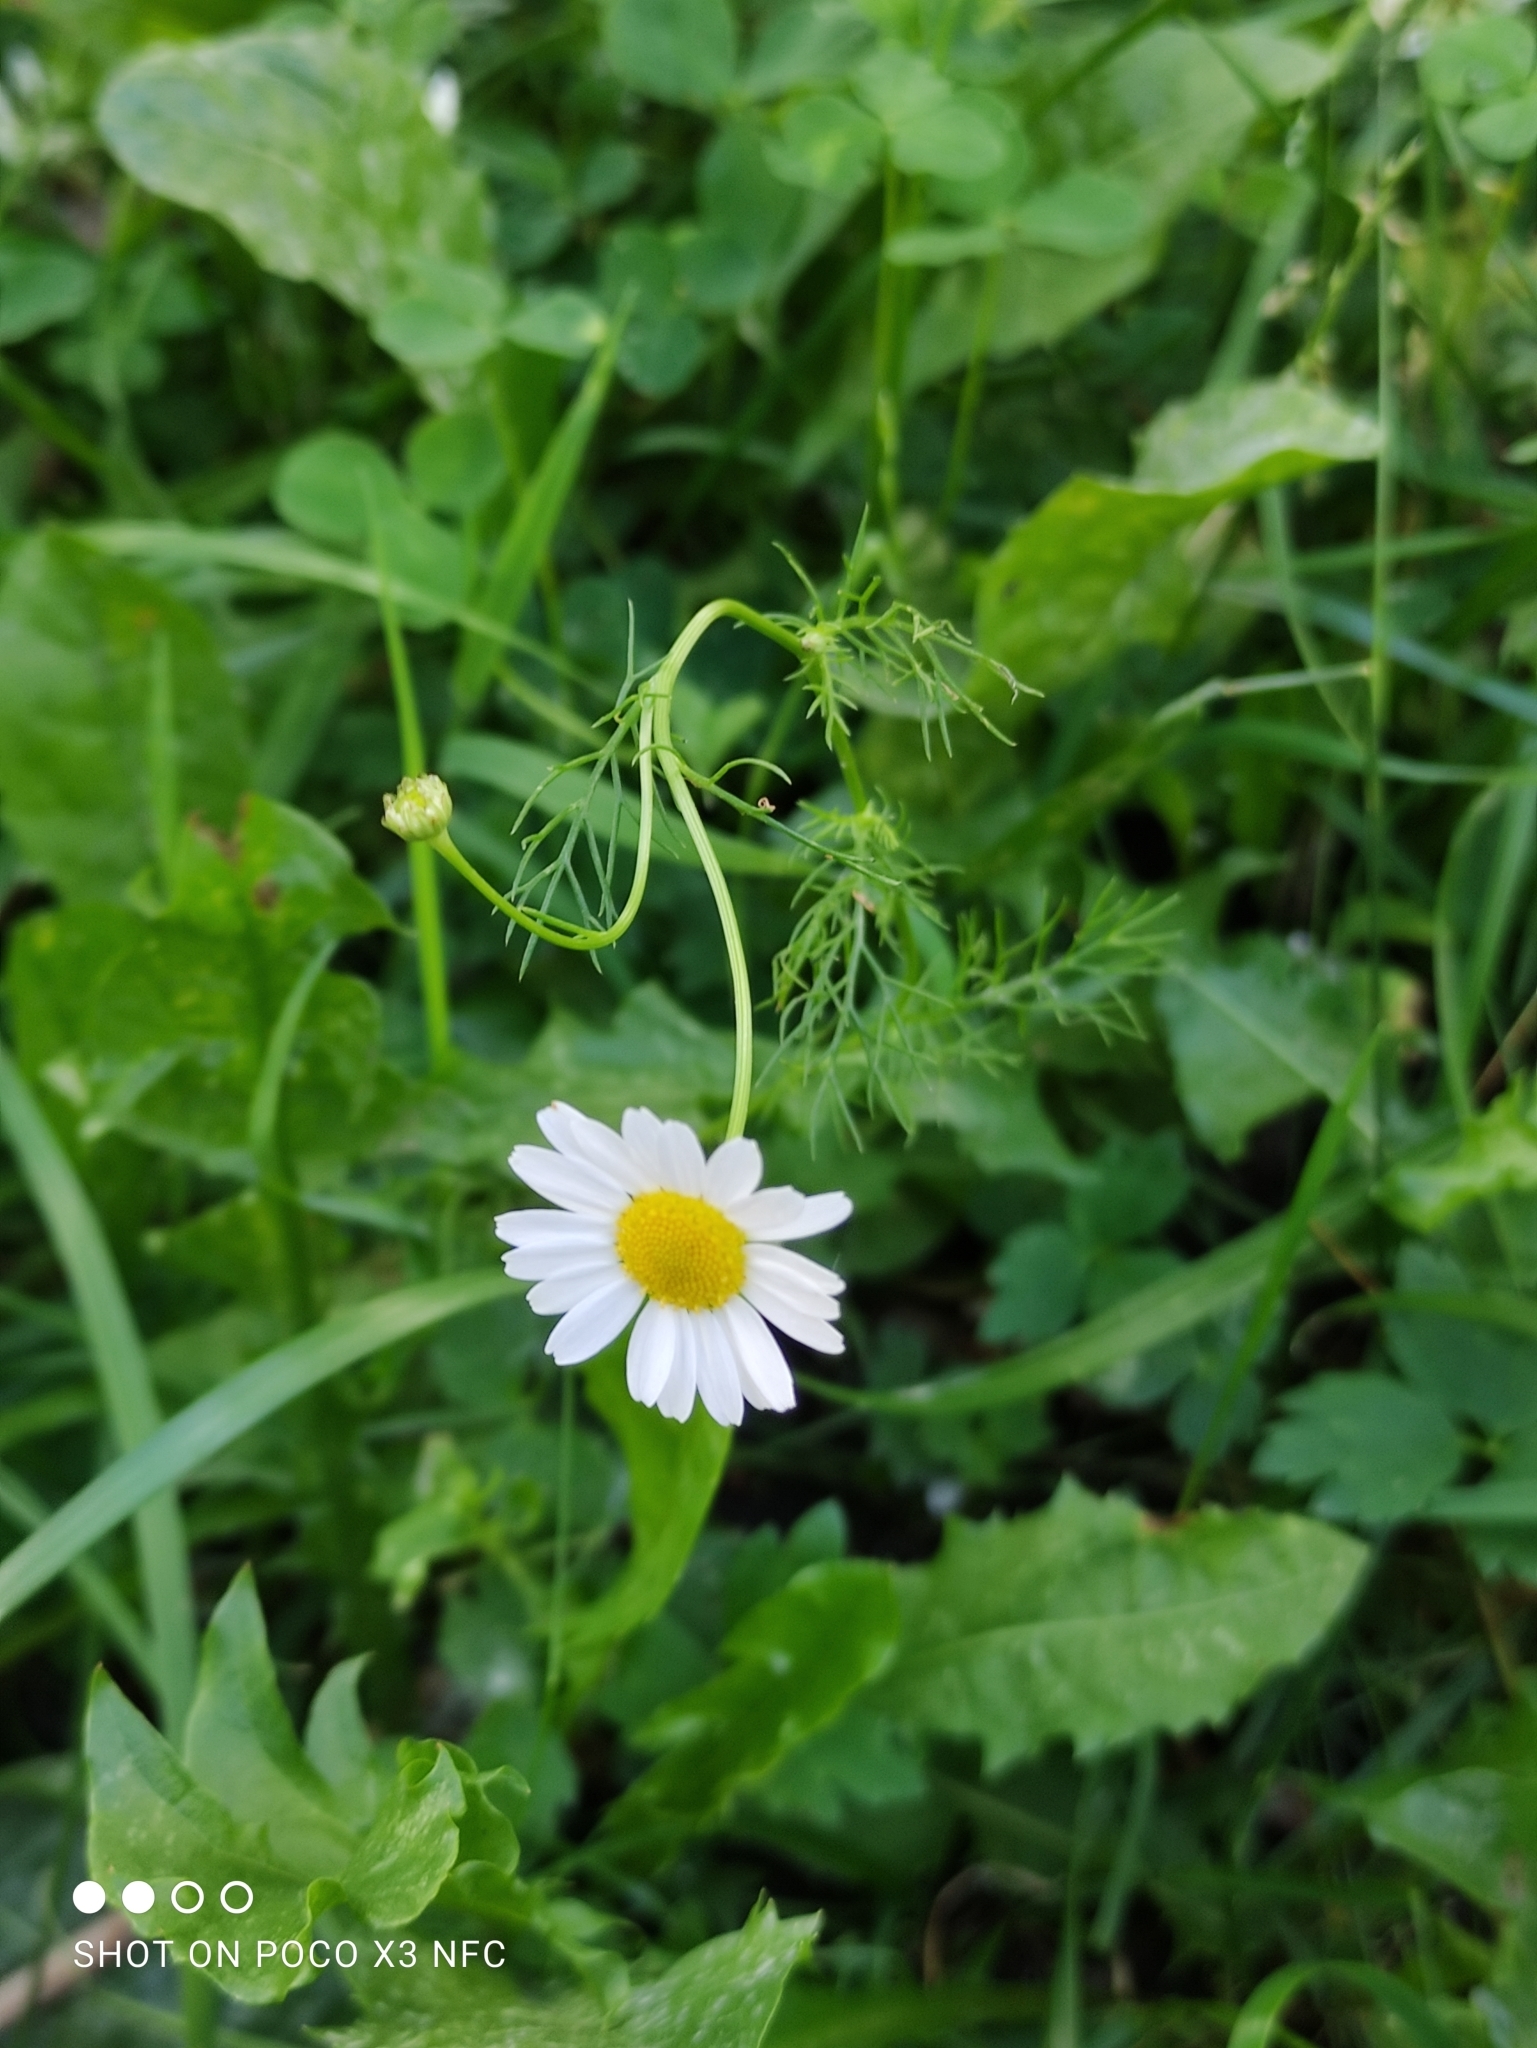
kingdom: Plantae
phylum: Tracheophyta
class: Magnoliopsida
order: Asterales
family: Asteraceae
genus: Tripleurospermum
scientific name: Tripleurospermum inodorum
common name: Scentless mayweed
